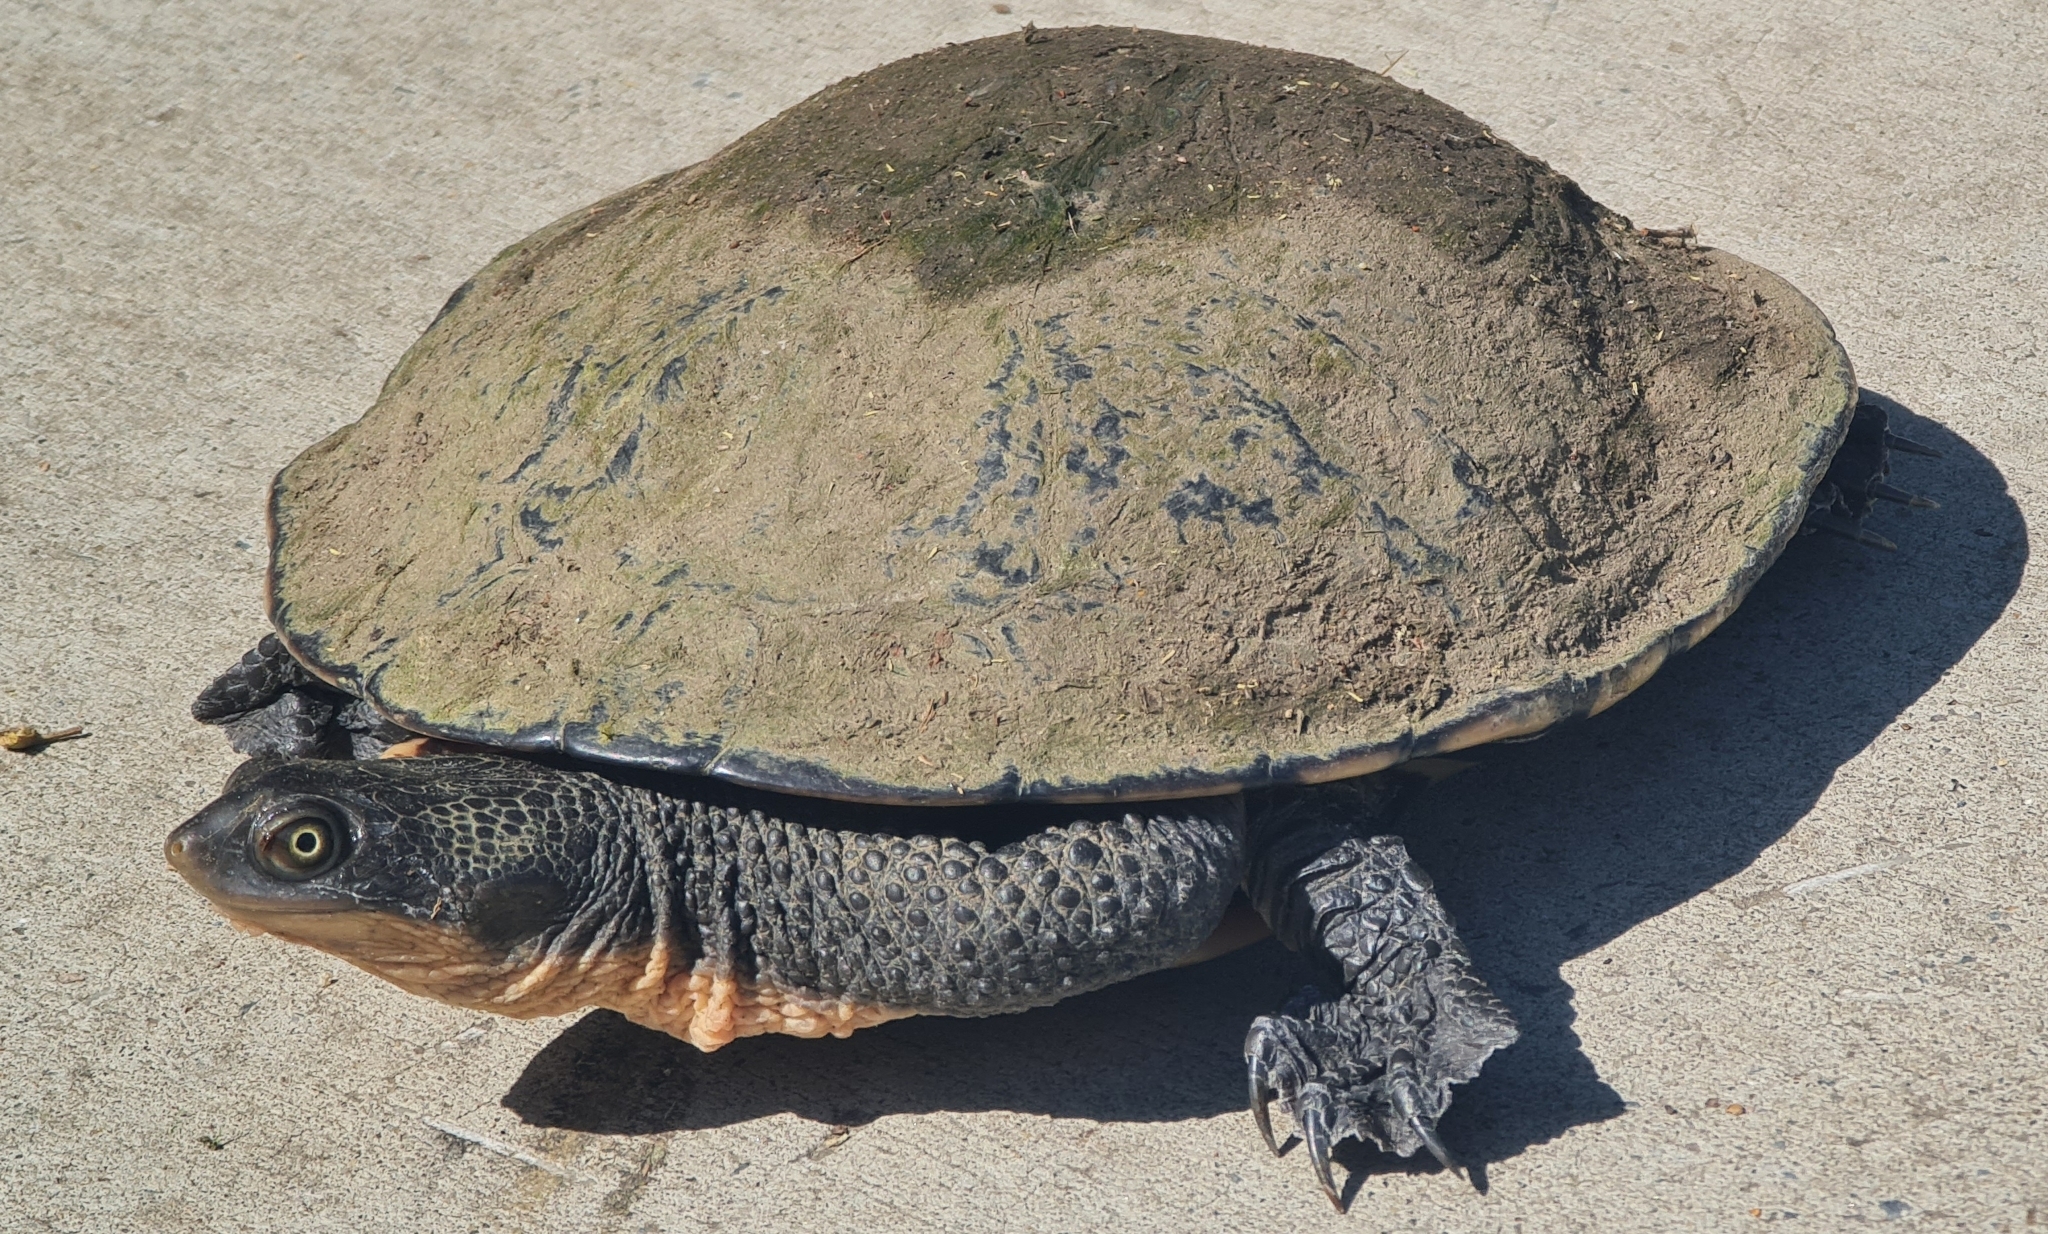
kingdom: Animalia
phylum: Chordata
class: Testudines
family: Chelidae
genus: Chelodina
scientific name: Chelodina longicollis
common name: Eastern snake-necked turtle
